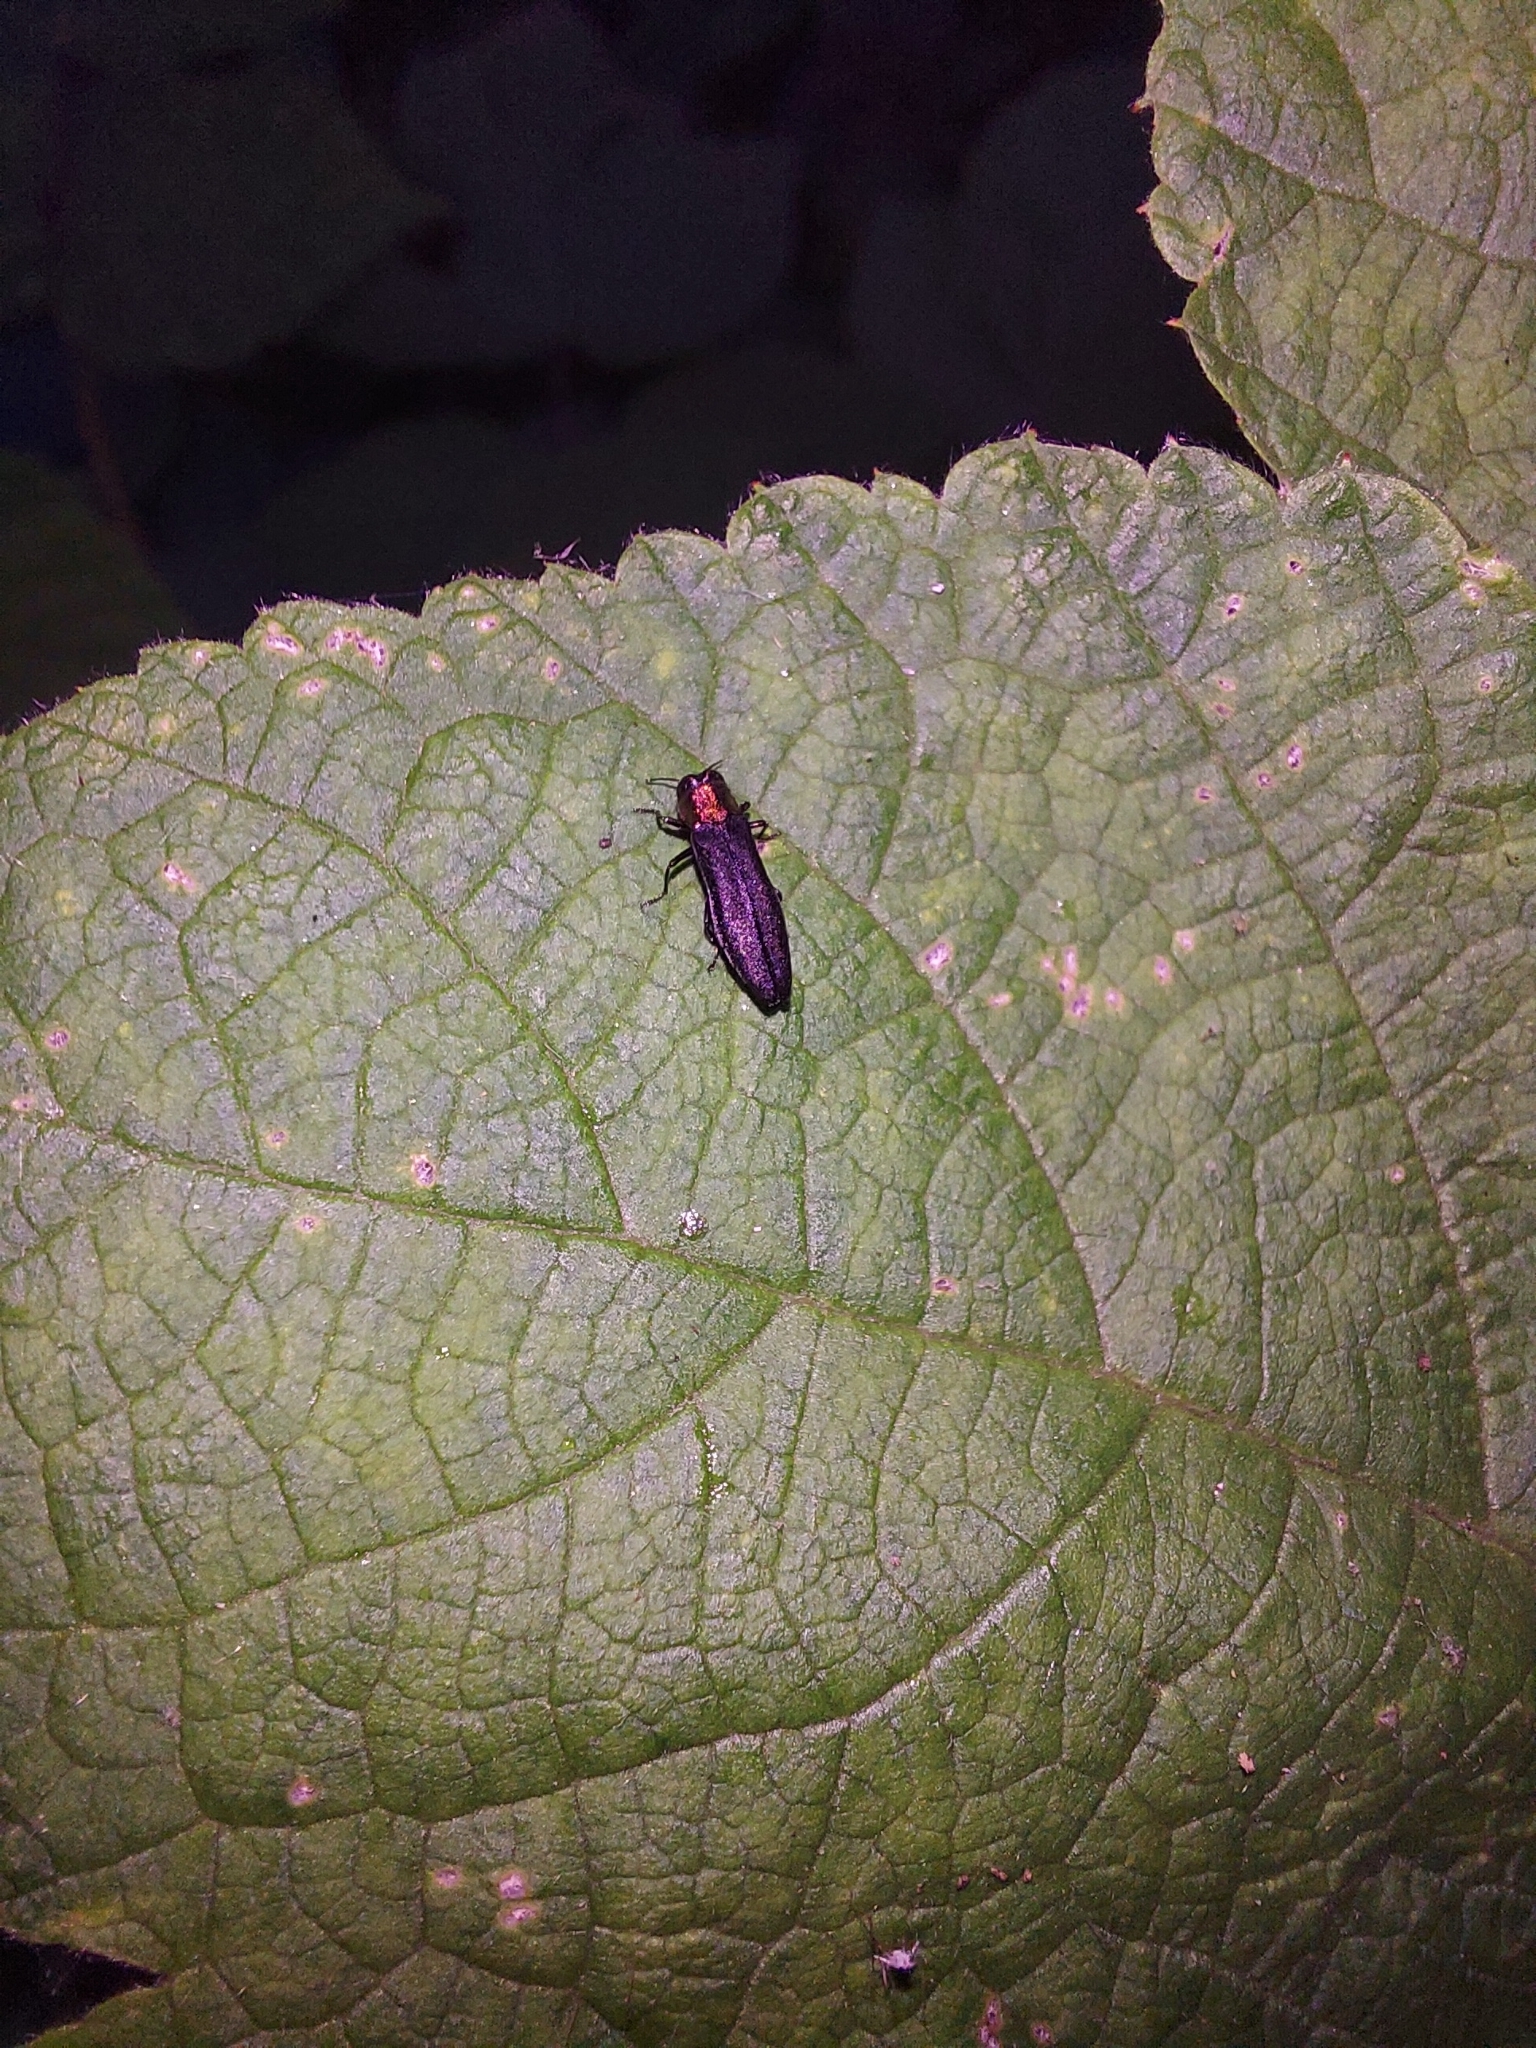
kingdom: Animalia
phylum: Arthropoda
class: Insecta
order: Coleoptera
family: Buprestidae
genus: Agrilus
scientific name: Agrilus ruficollis
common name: Red-necked cane borer beetle
